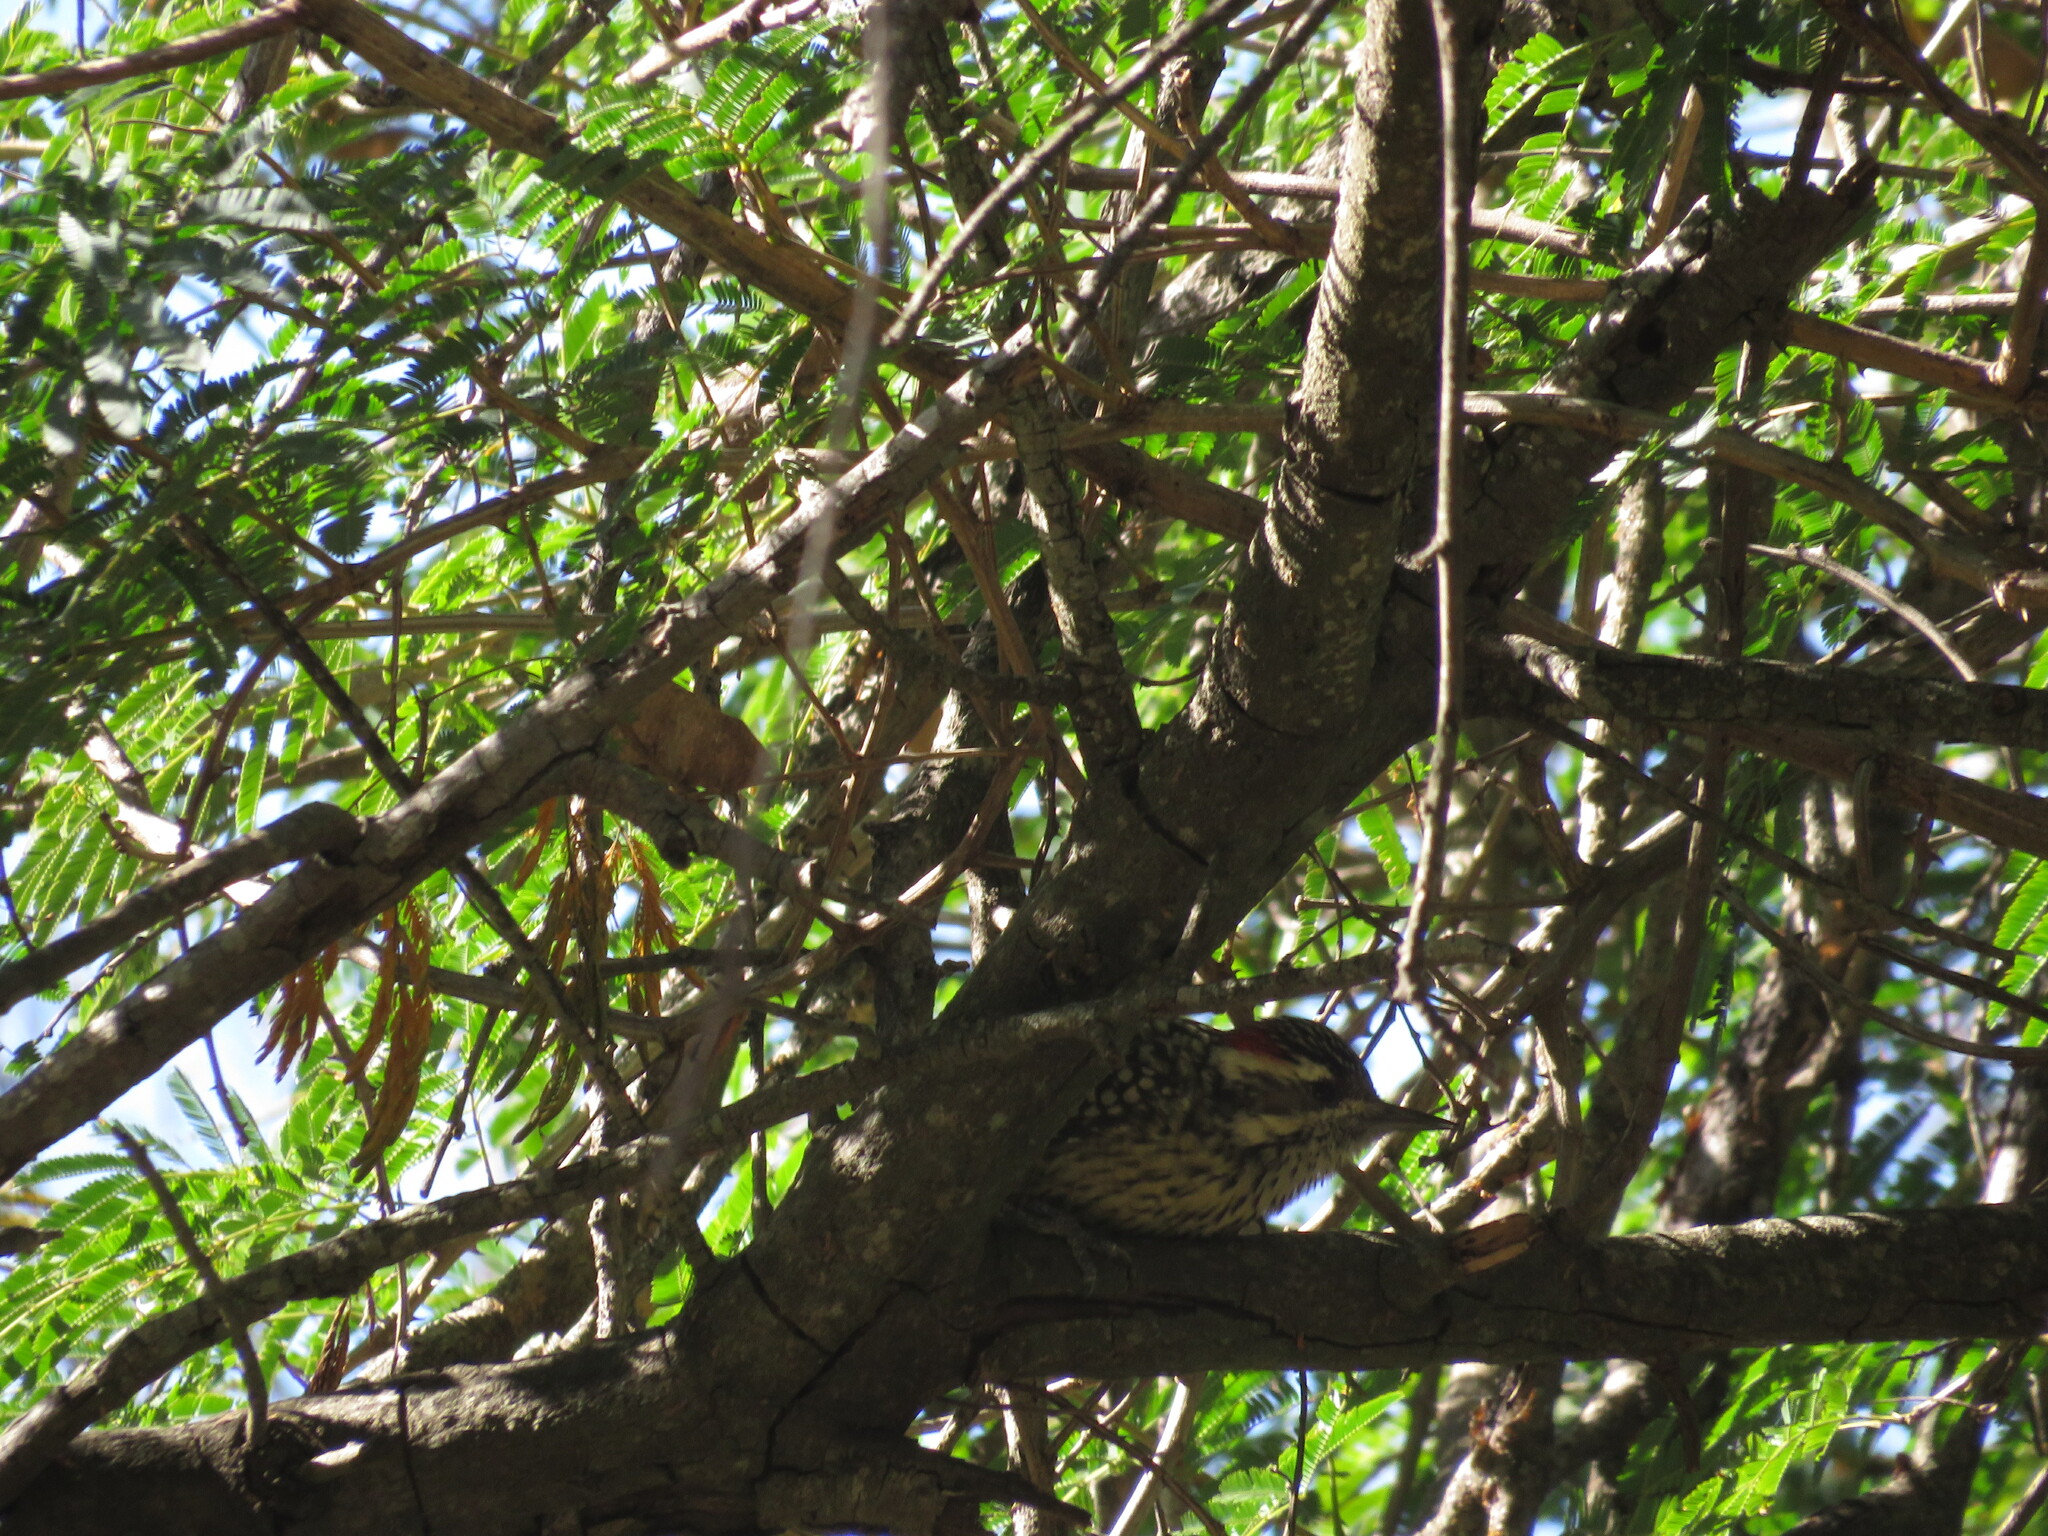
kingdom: Animalia
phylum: Chordata
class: Aves
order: Piciformes
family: Picidae
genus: Veniliornis
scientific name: Veniliornis mixtus
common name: Checkered woodpecker
